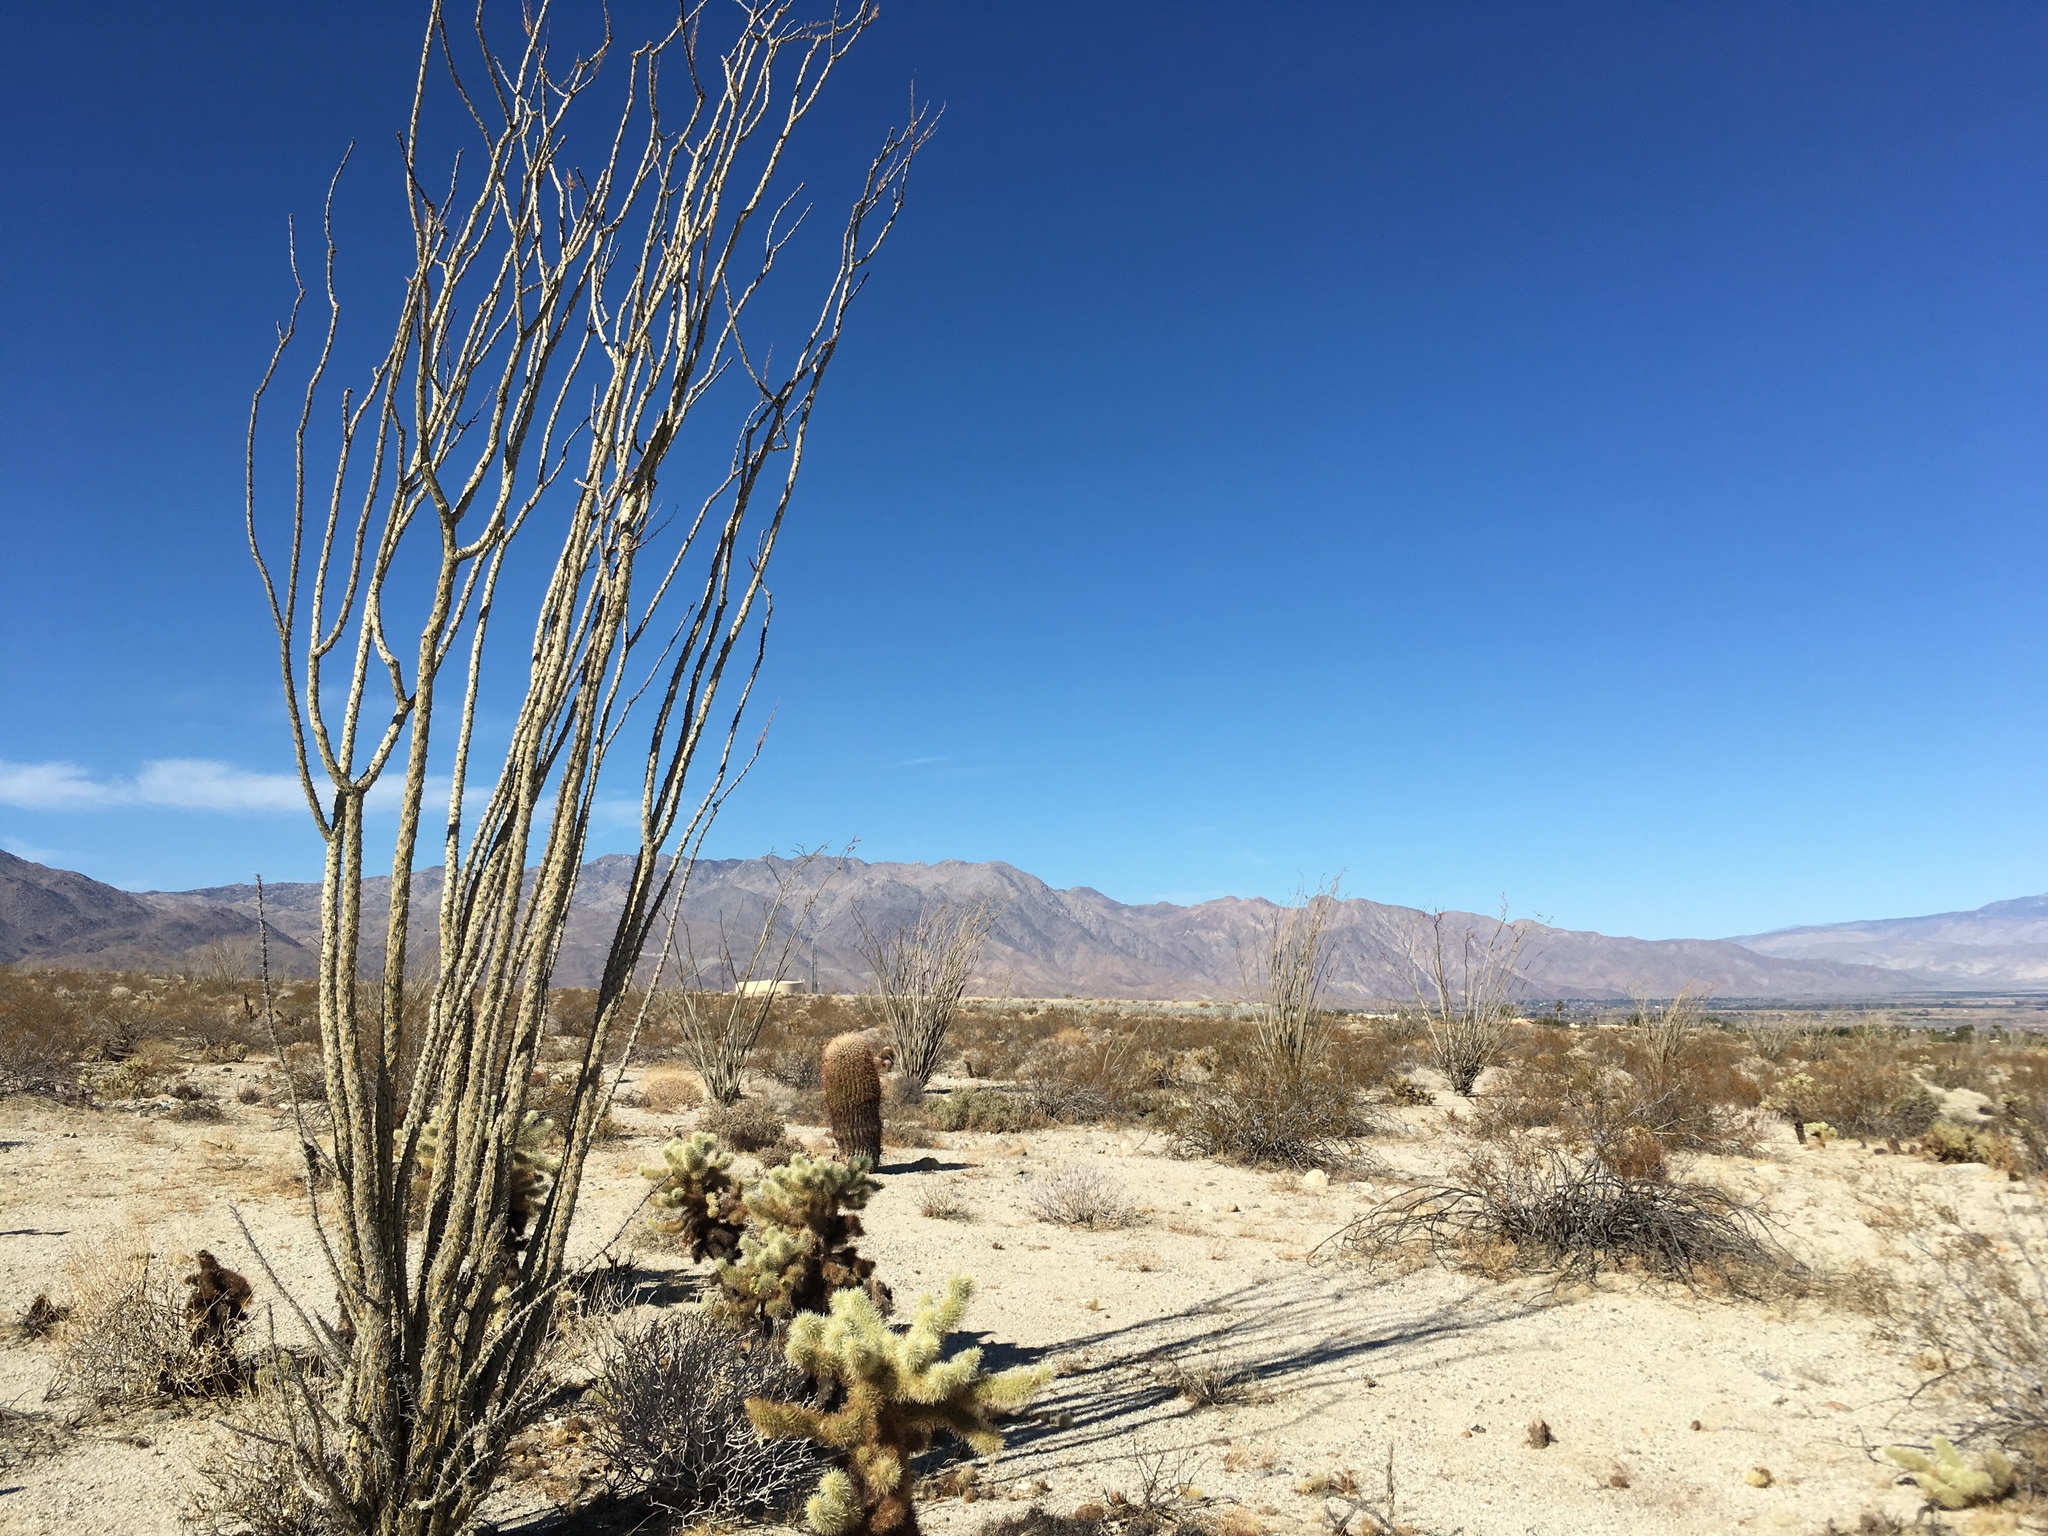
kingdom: Plantae
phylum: Tracheophyta
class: Magnoliopsida
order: Ericales
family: Fouquieriaceae
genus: Fouquieria
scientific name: Fouquieria splendens
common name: Vine-cactus
